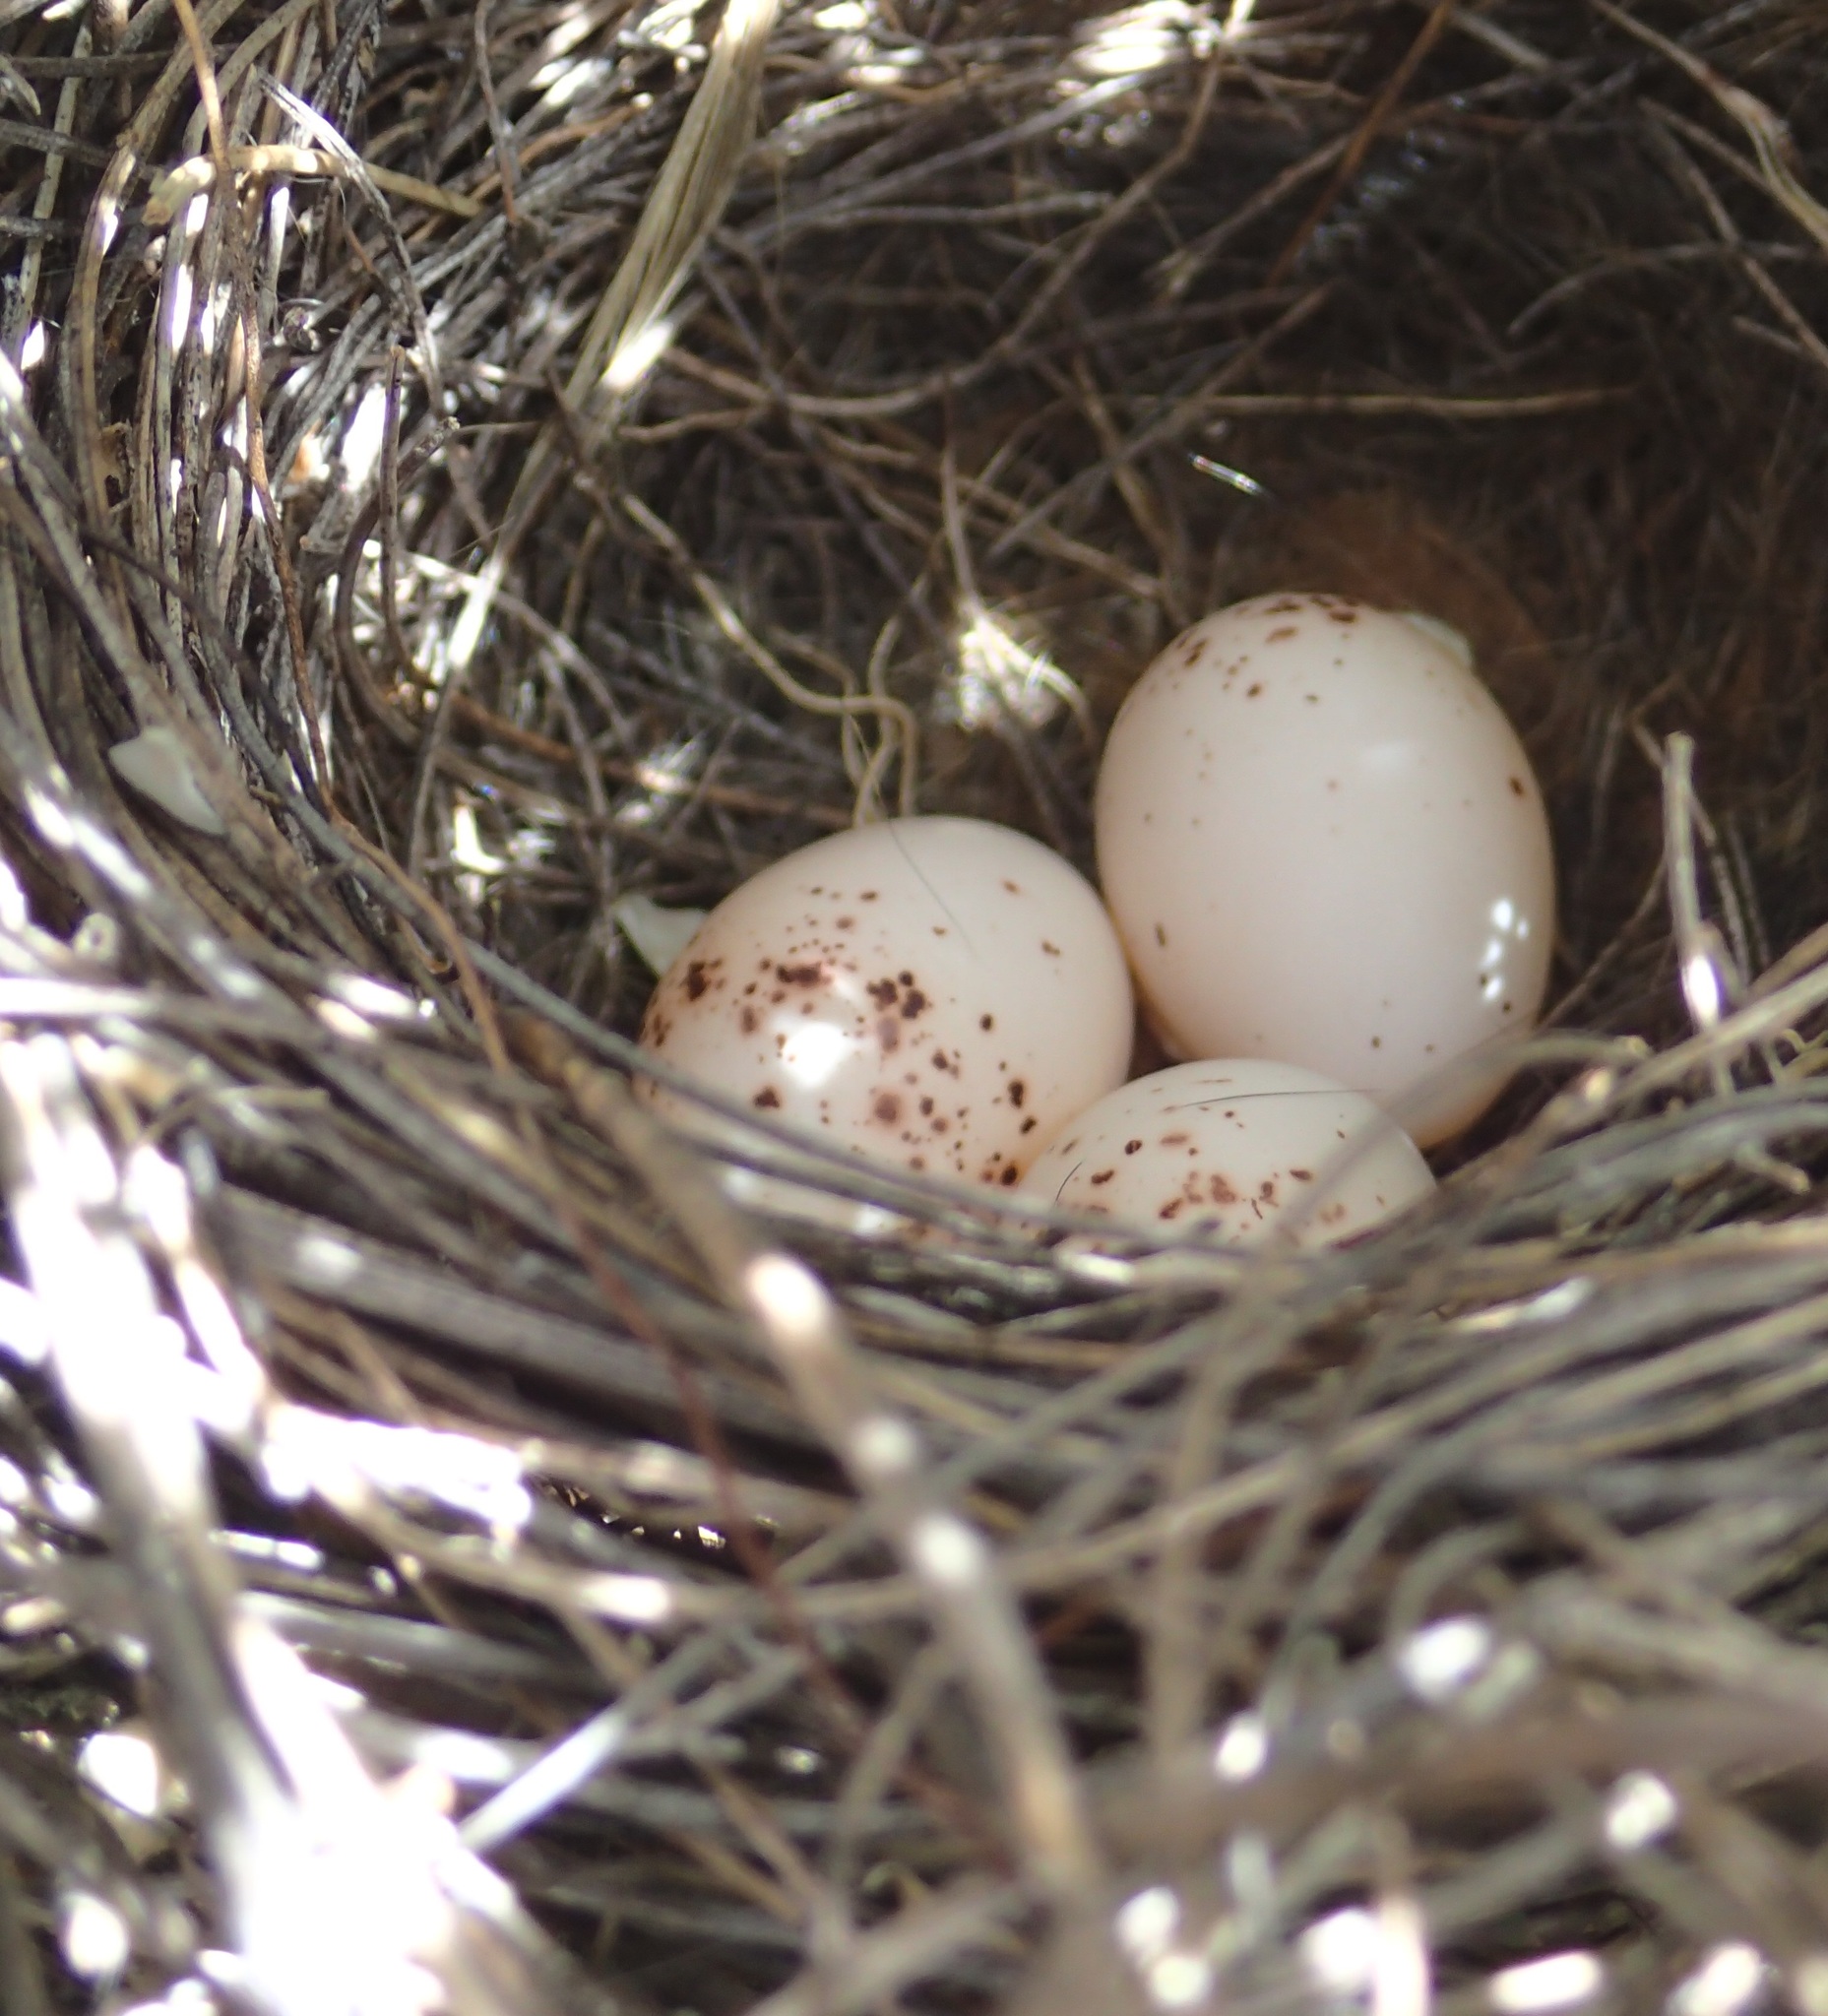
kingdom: Animalia
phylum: Chordata
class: Aves
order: Passeriformes
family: Meliphagidae
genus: Epthianura
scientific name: Epthianura albifrons
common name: White-fronted chat
